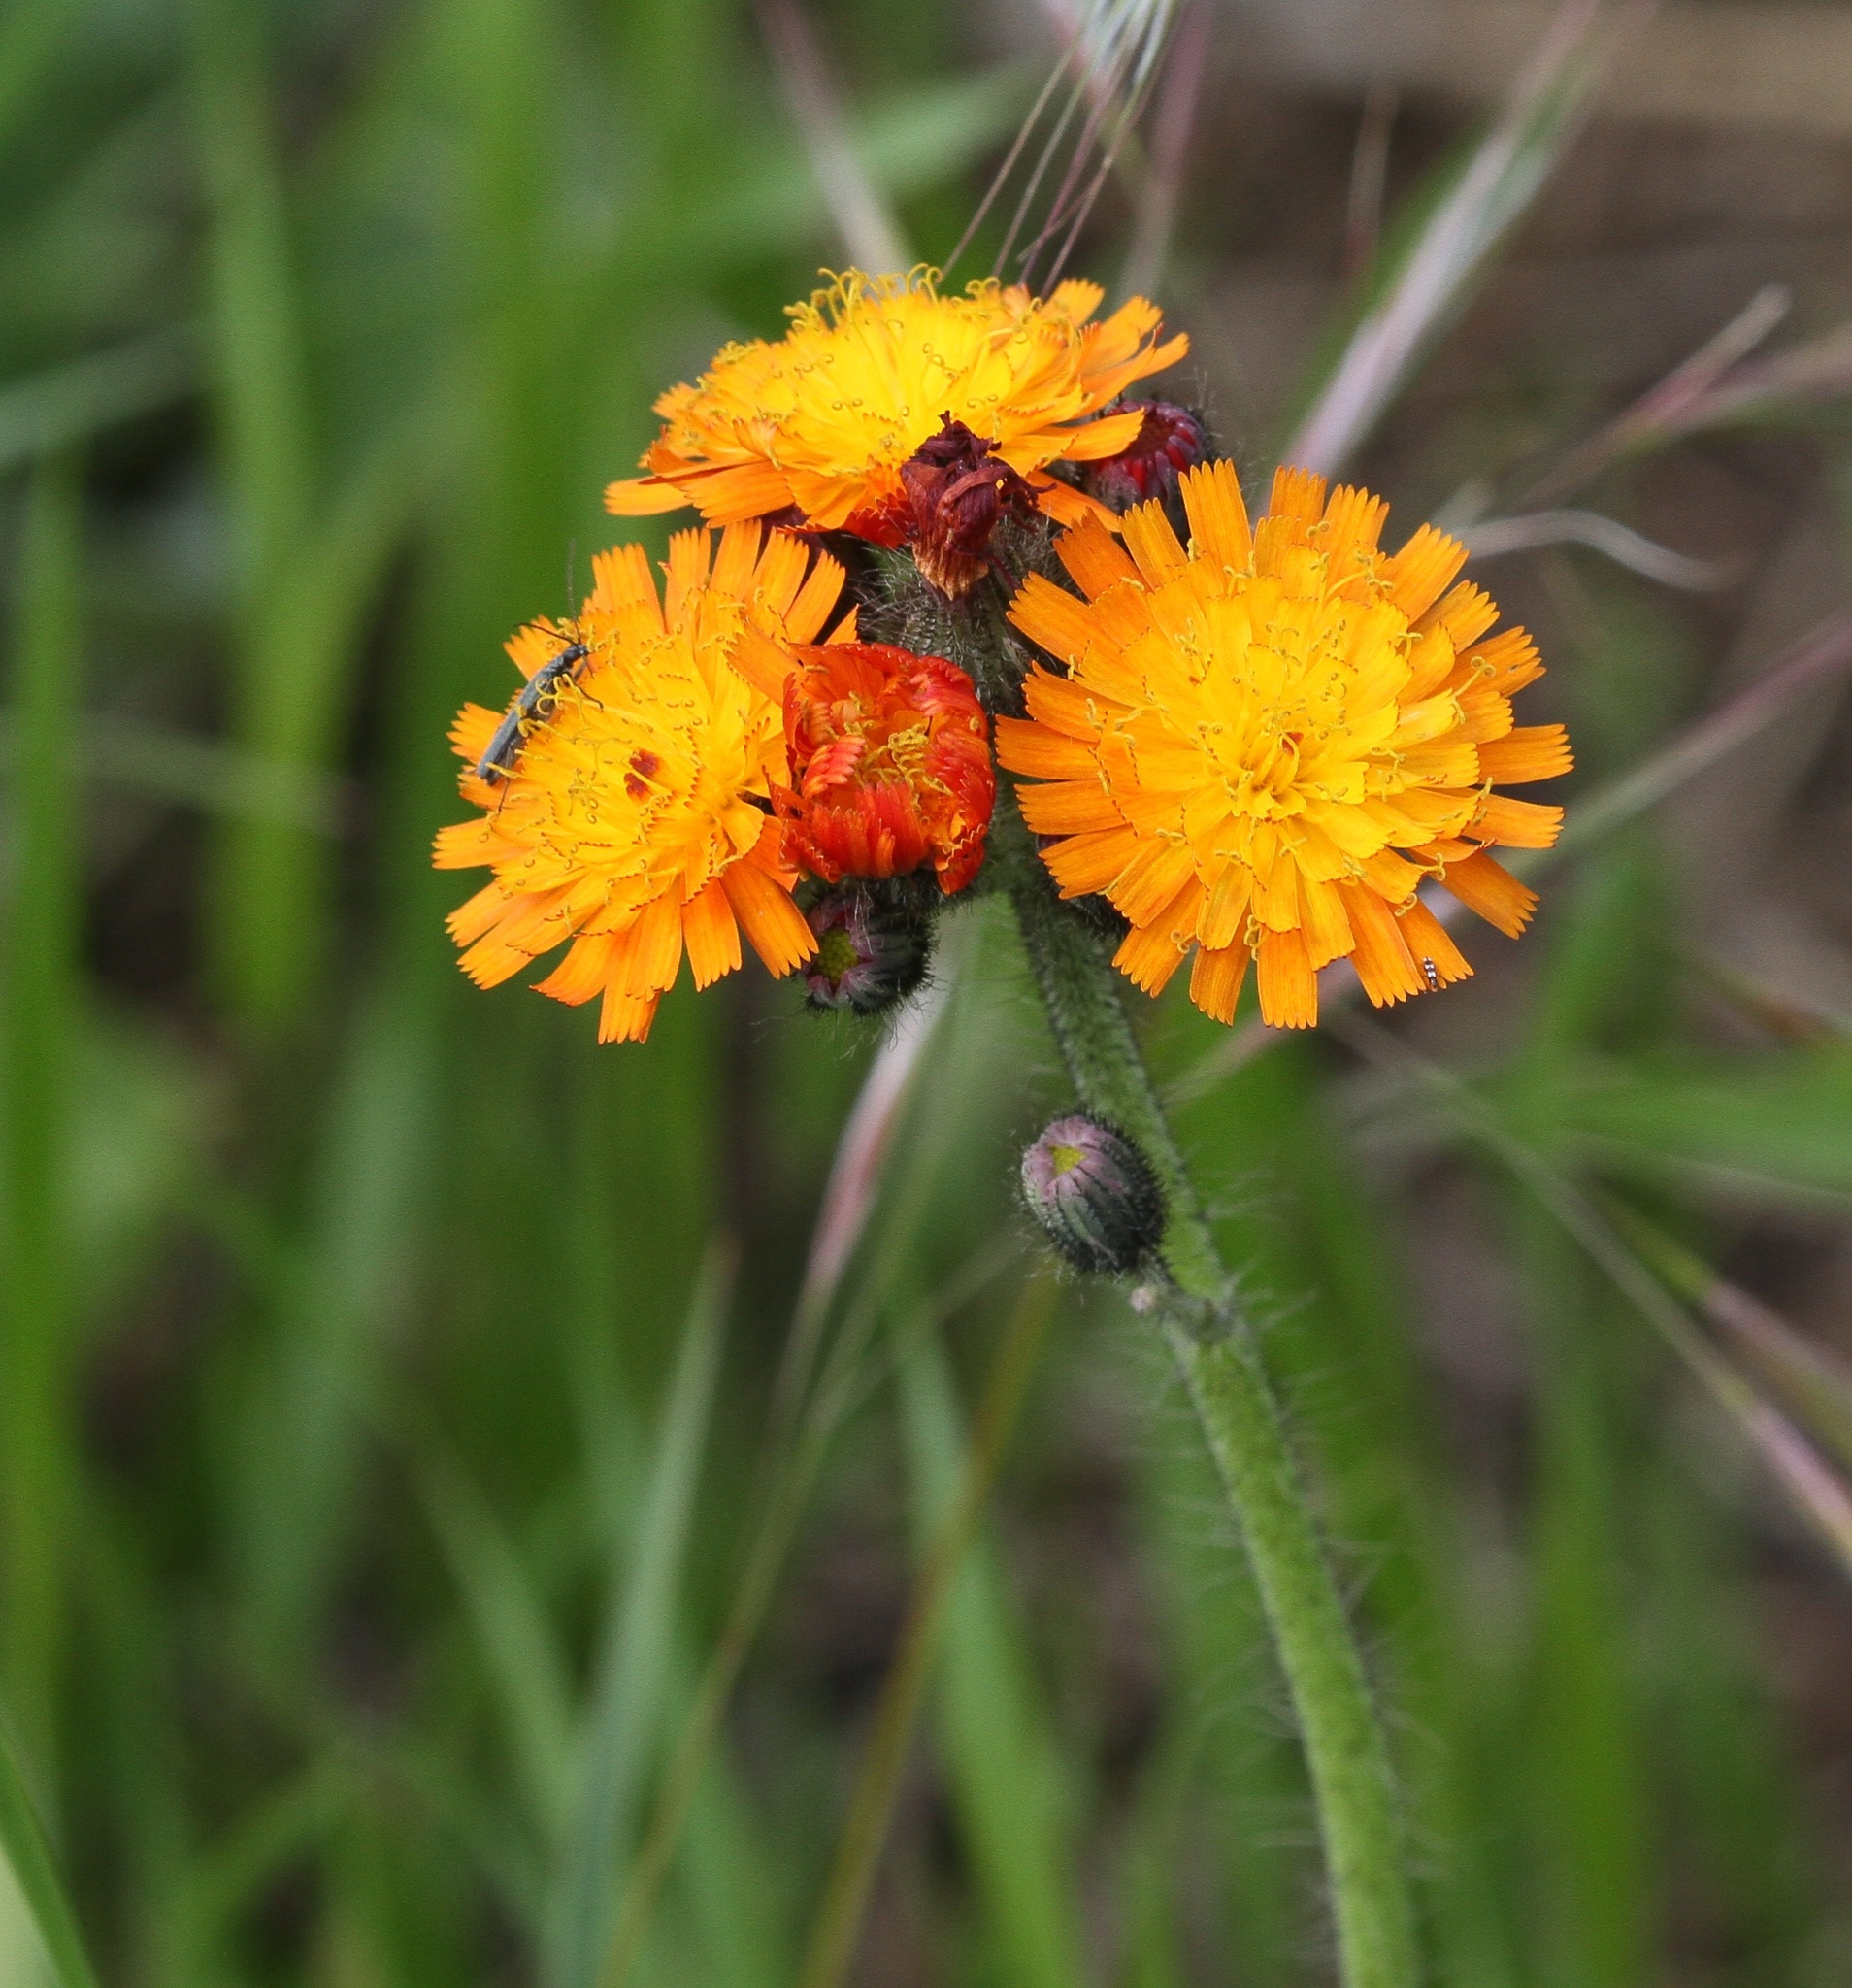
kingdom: Plantae
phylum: Tracheophyta
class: Magnoliopsida
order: Asterales
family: Asteraceae
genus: Pilosella
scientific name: Pilosella aurantiaca
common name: Fox-and-cubs
